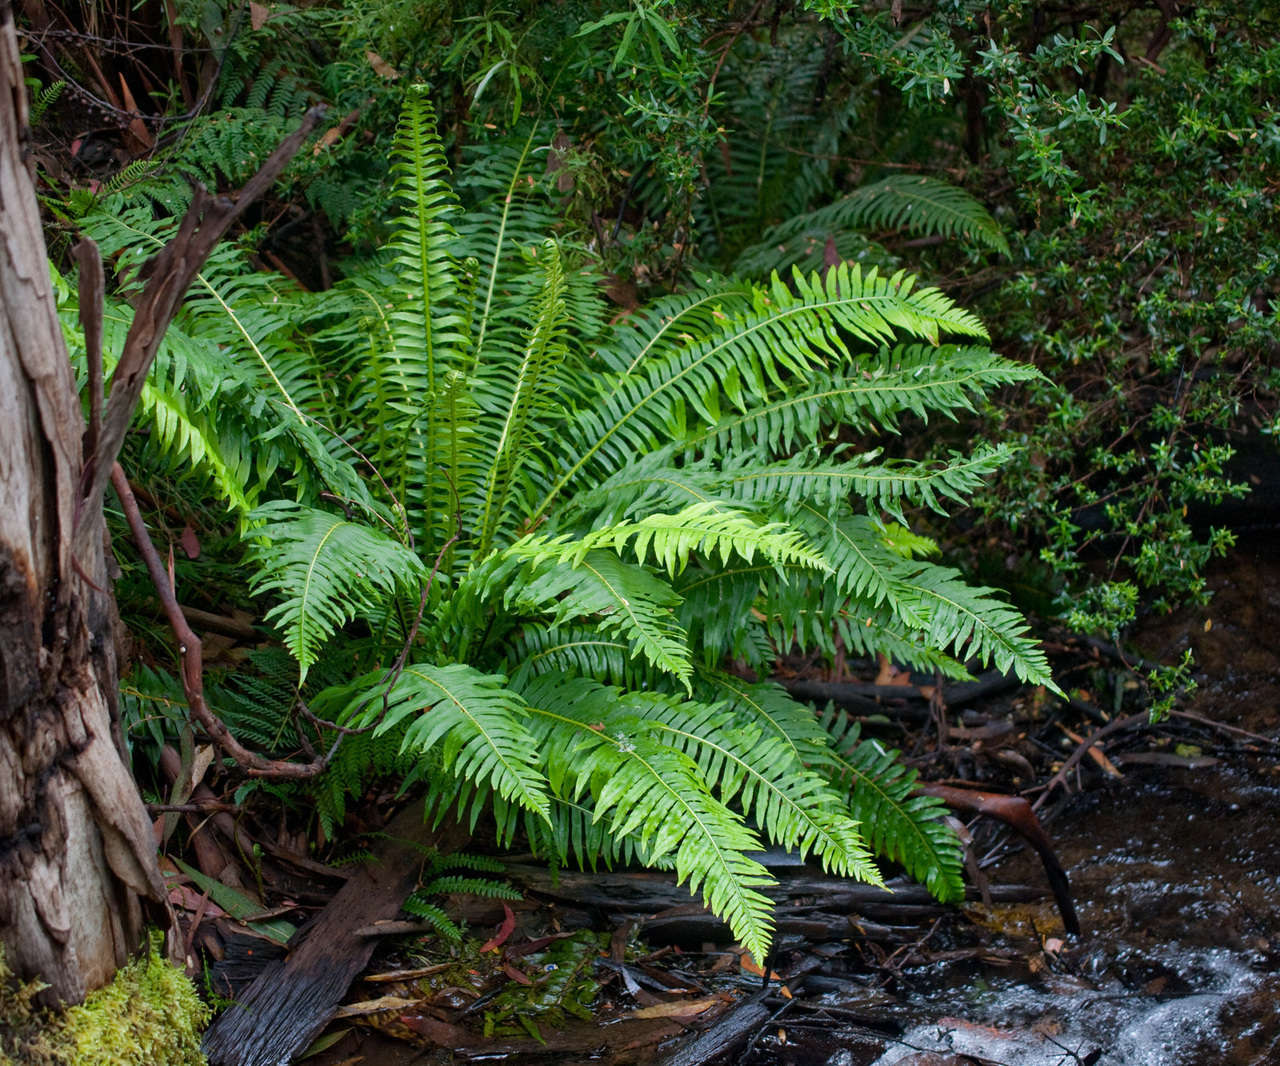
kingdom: Plantae
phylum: Tracheophyta
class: Polypodiopsida
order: Polypodiales
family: Blechnaceae
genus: Lomaria
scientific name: Lomaria nuda
